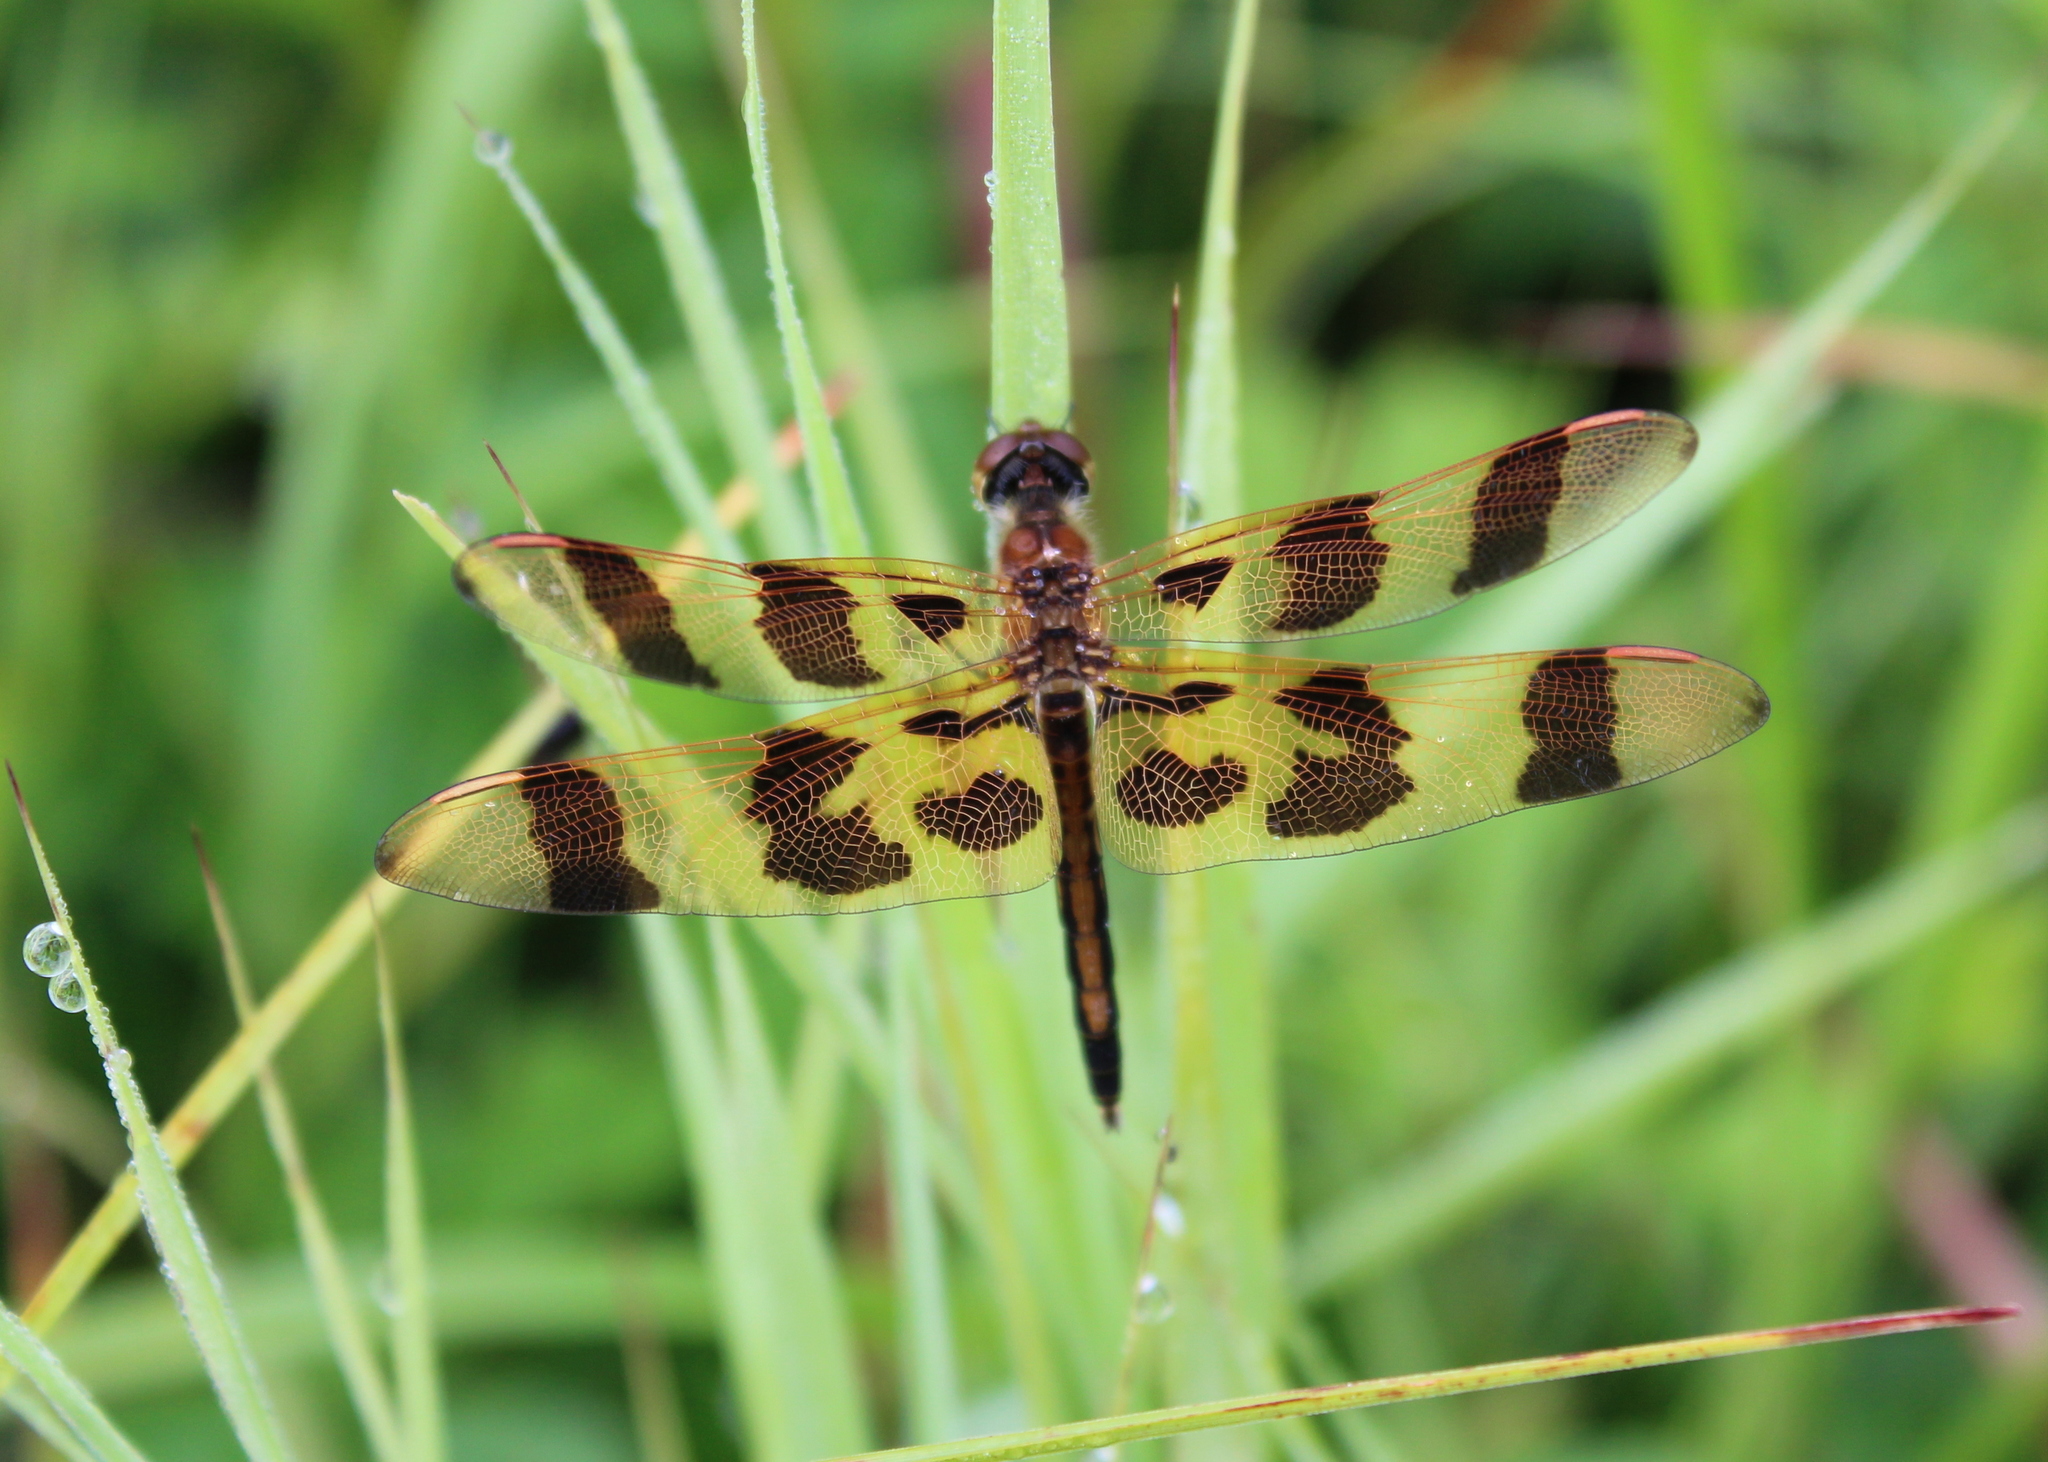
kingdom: Animalia
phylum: Arthropoda
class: Insecta
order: Odonata
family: Libellulidae
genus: Celithemis
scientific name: Celithemis eponina
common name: Halloween pennant
